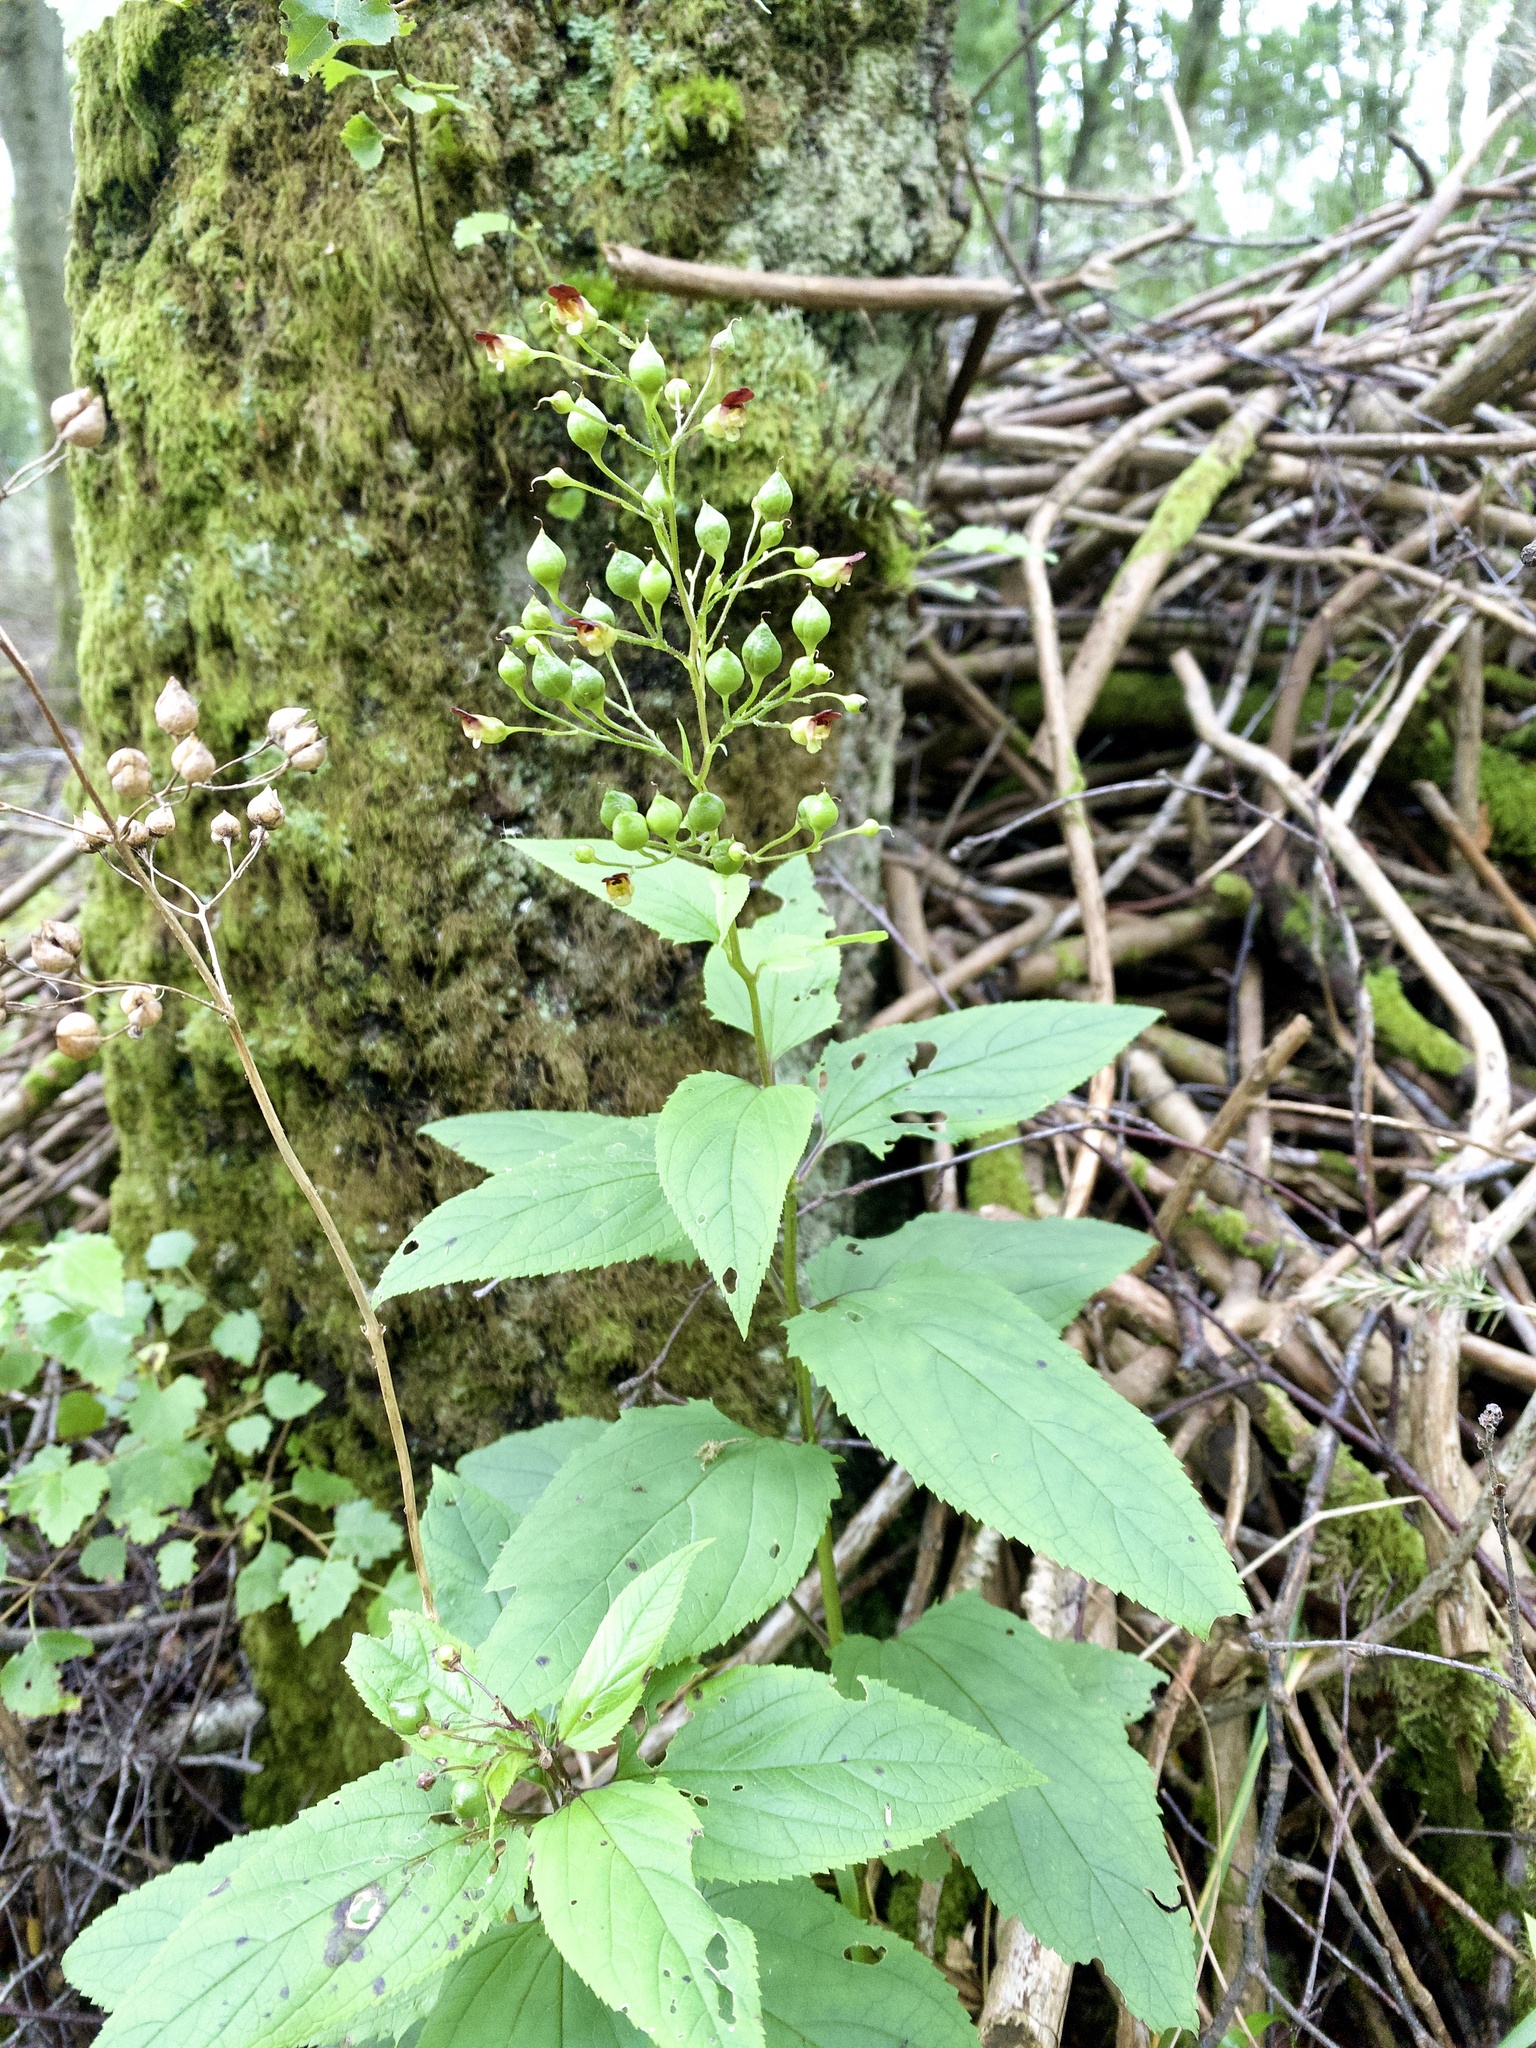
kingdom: Plantae
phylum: Tracheophyta
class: Magnoliopsida
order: Lamiales
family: Scrophulariaceae
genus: Scrophularia
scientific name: Scrophularia nodosa
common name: Common figwort
